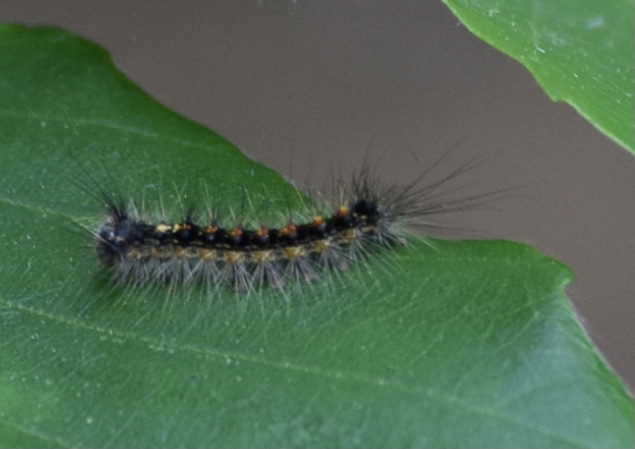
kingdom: Animalia
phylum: Arthropoda
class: Insecta
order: Lepidoptera
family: Erebidae
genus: Lymantria
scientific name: Lymantria dispar
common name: Gypsy moth
